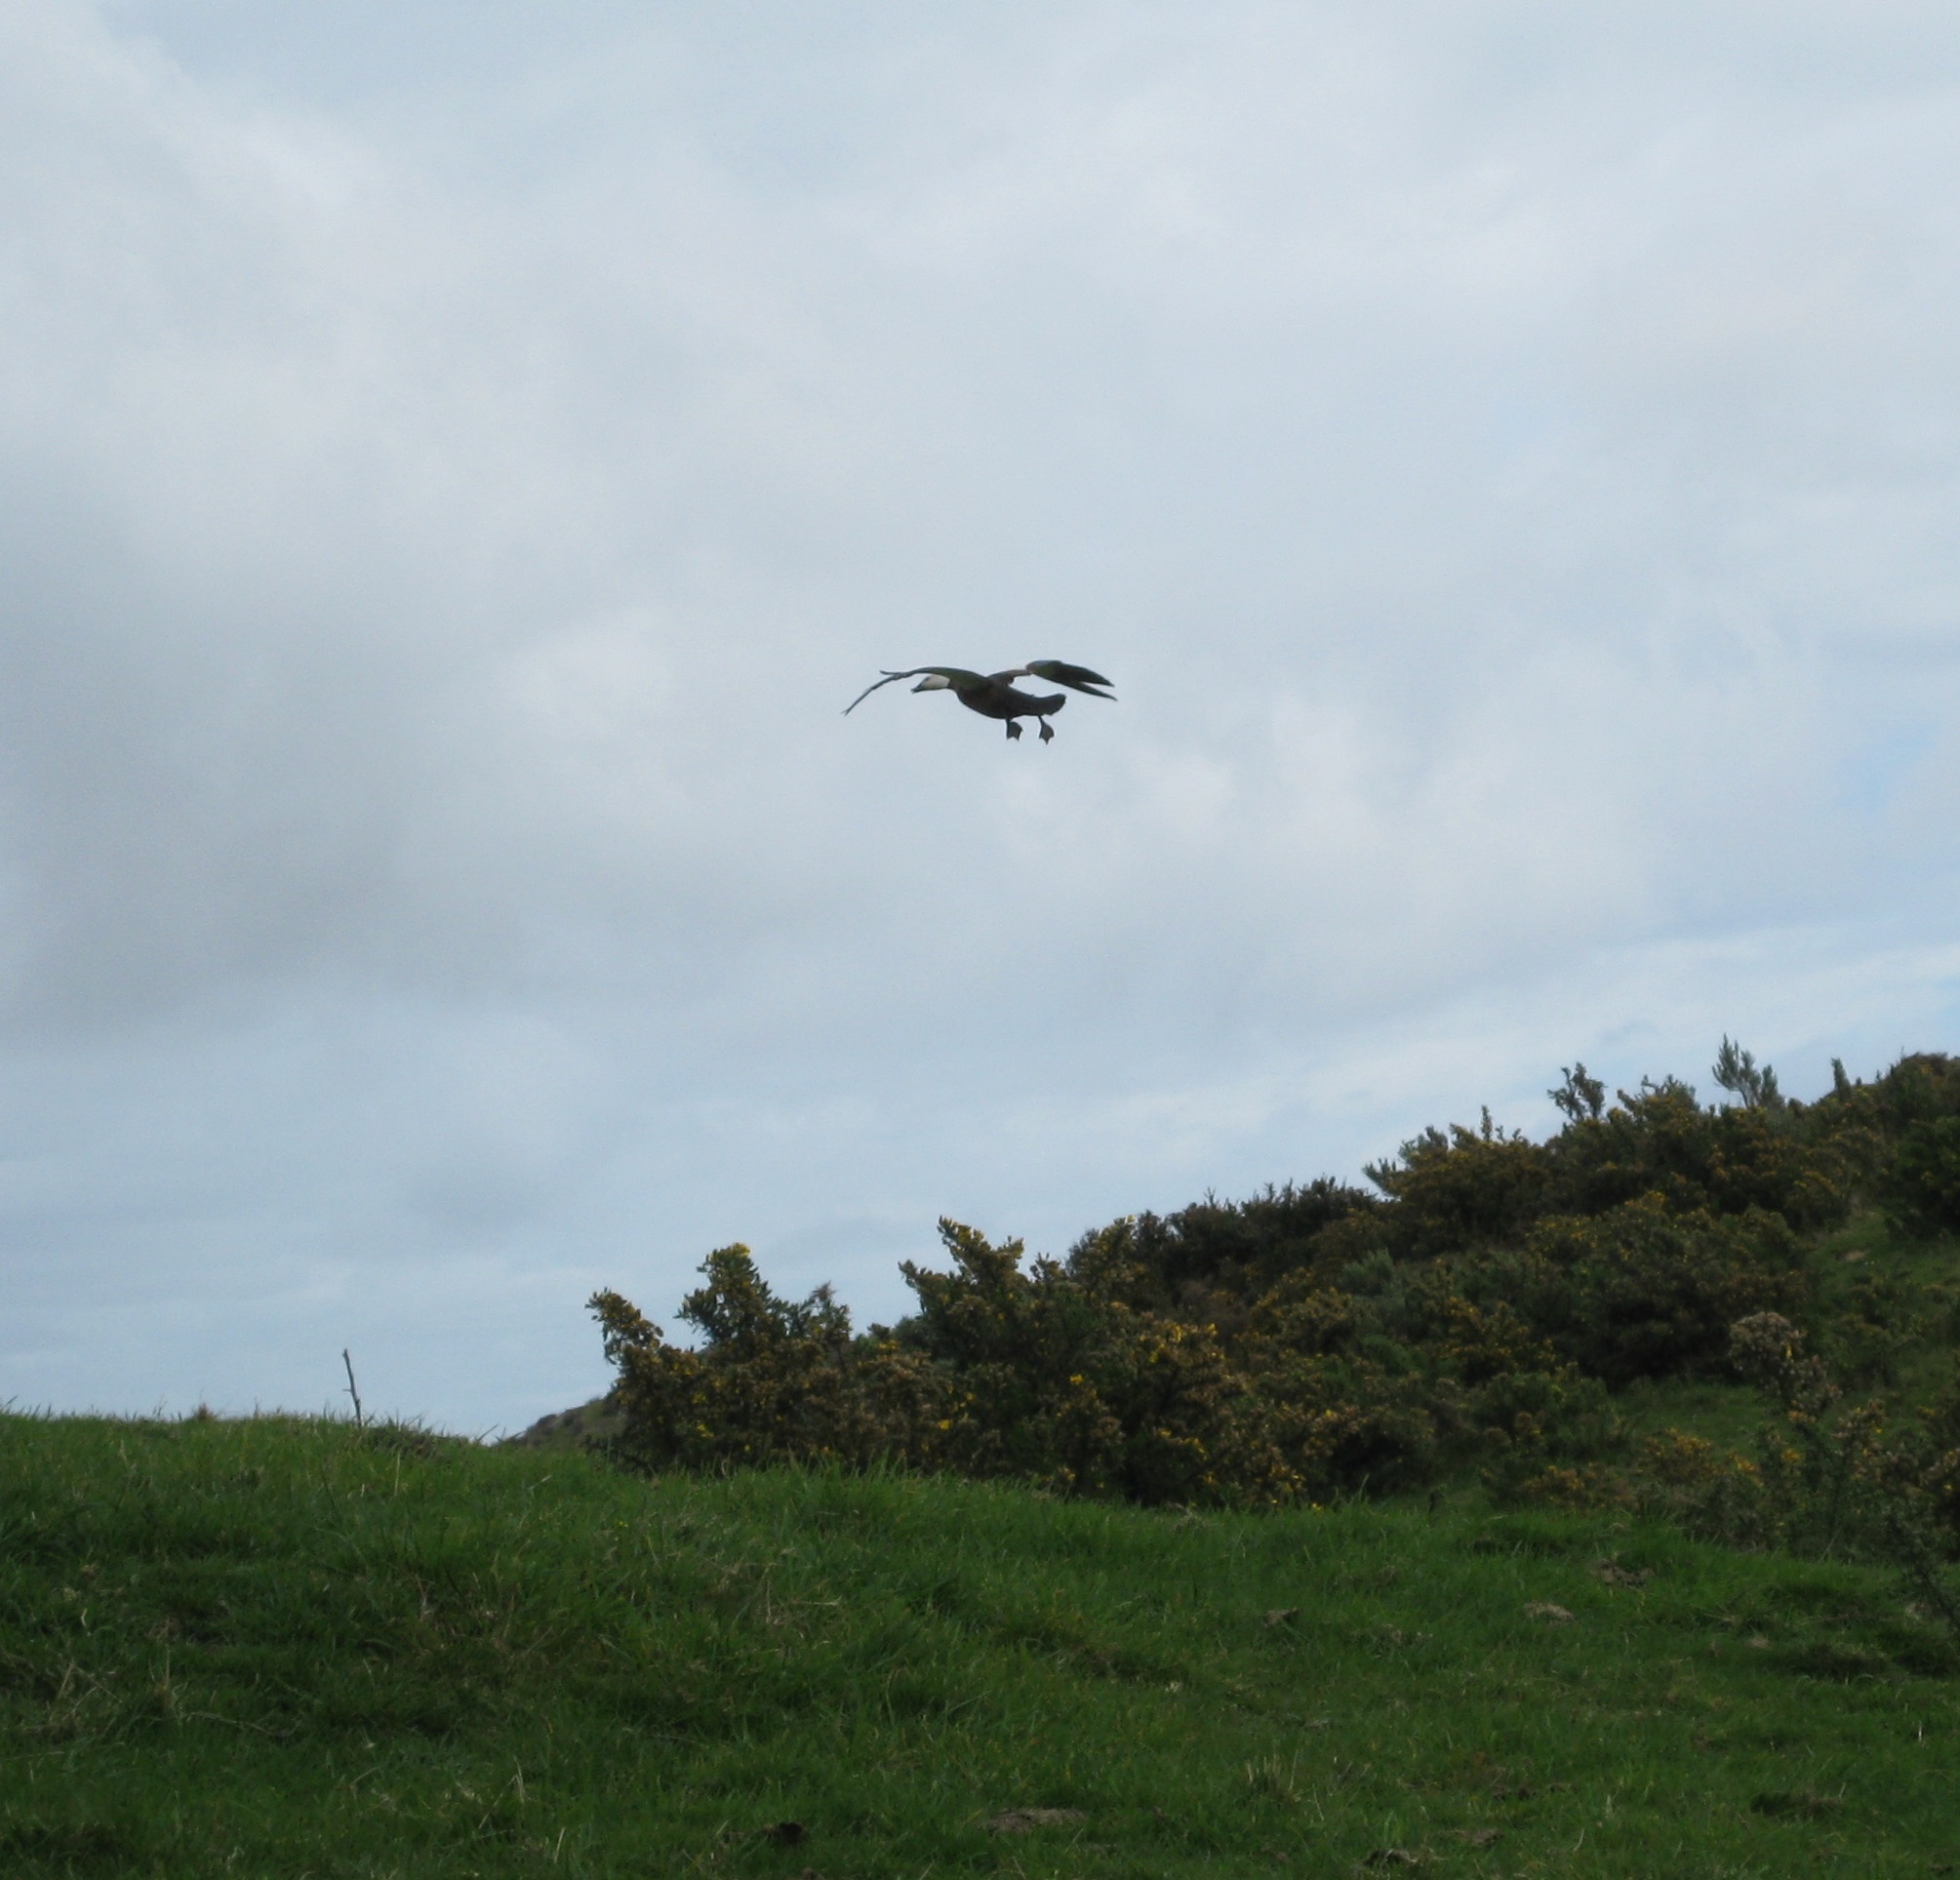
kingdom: Animalia
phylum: Chordata
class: Aves
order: Anseriformes
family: Anatidae
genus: Tadorna
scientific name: Tadorna variegata
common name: Paradise shelduck
